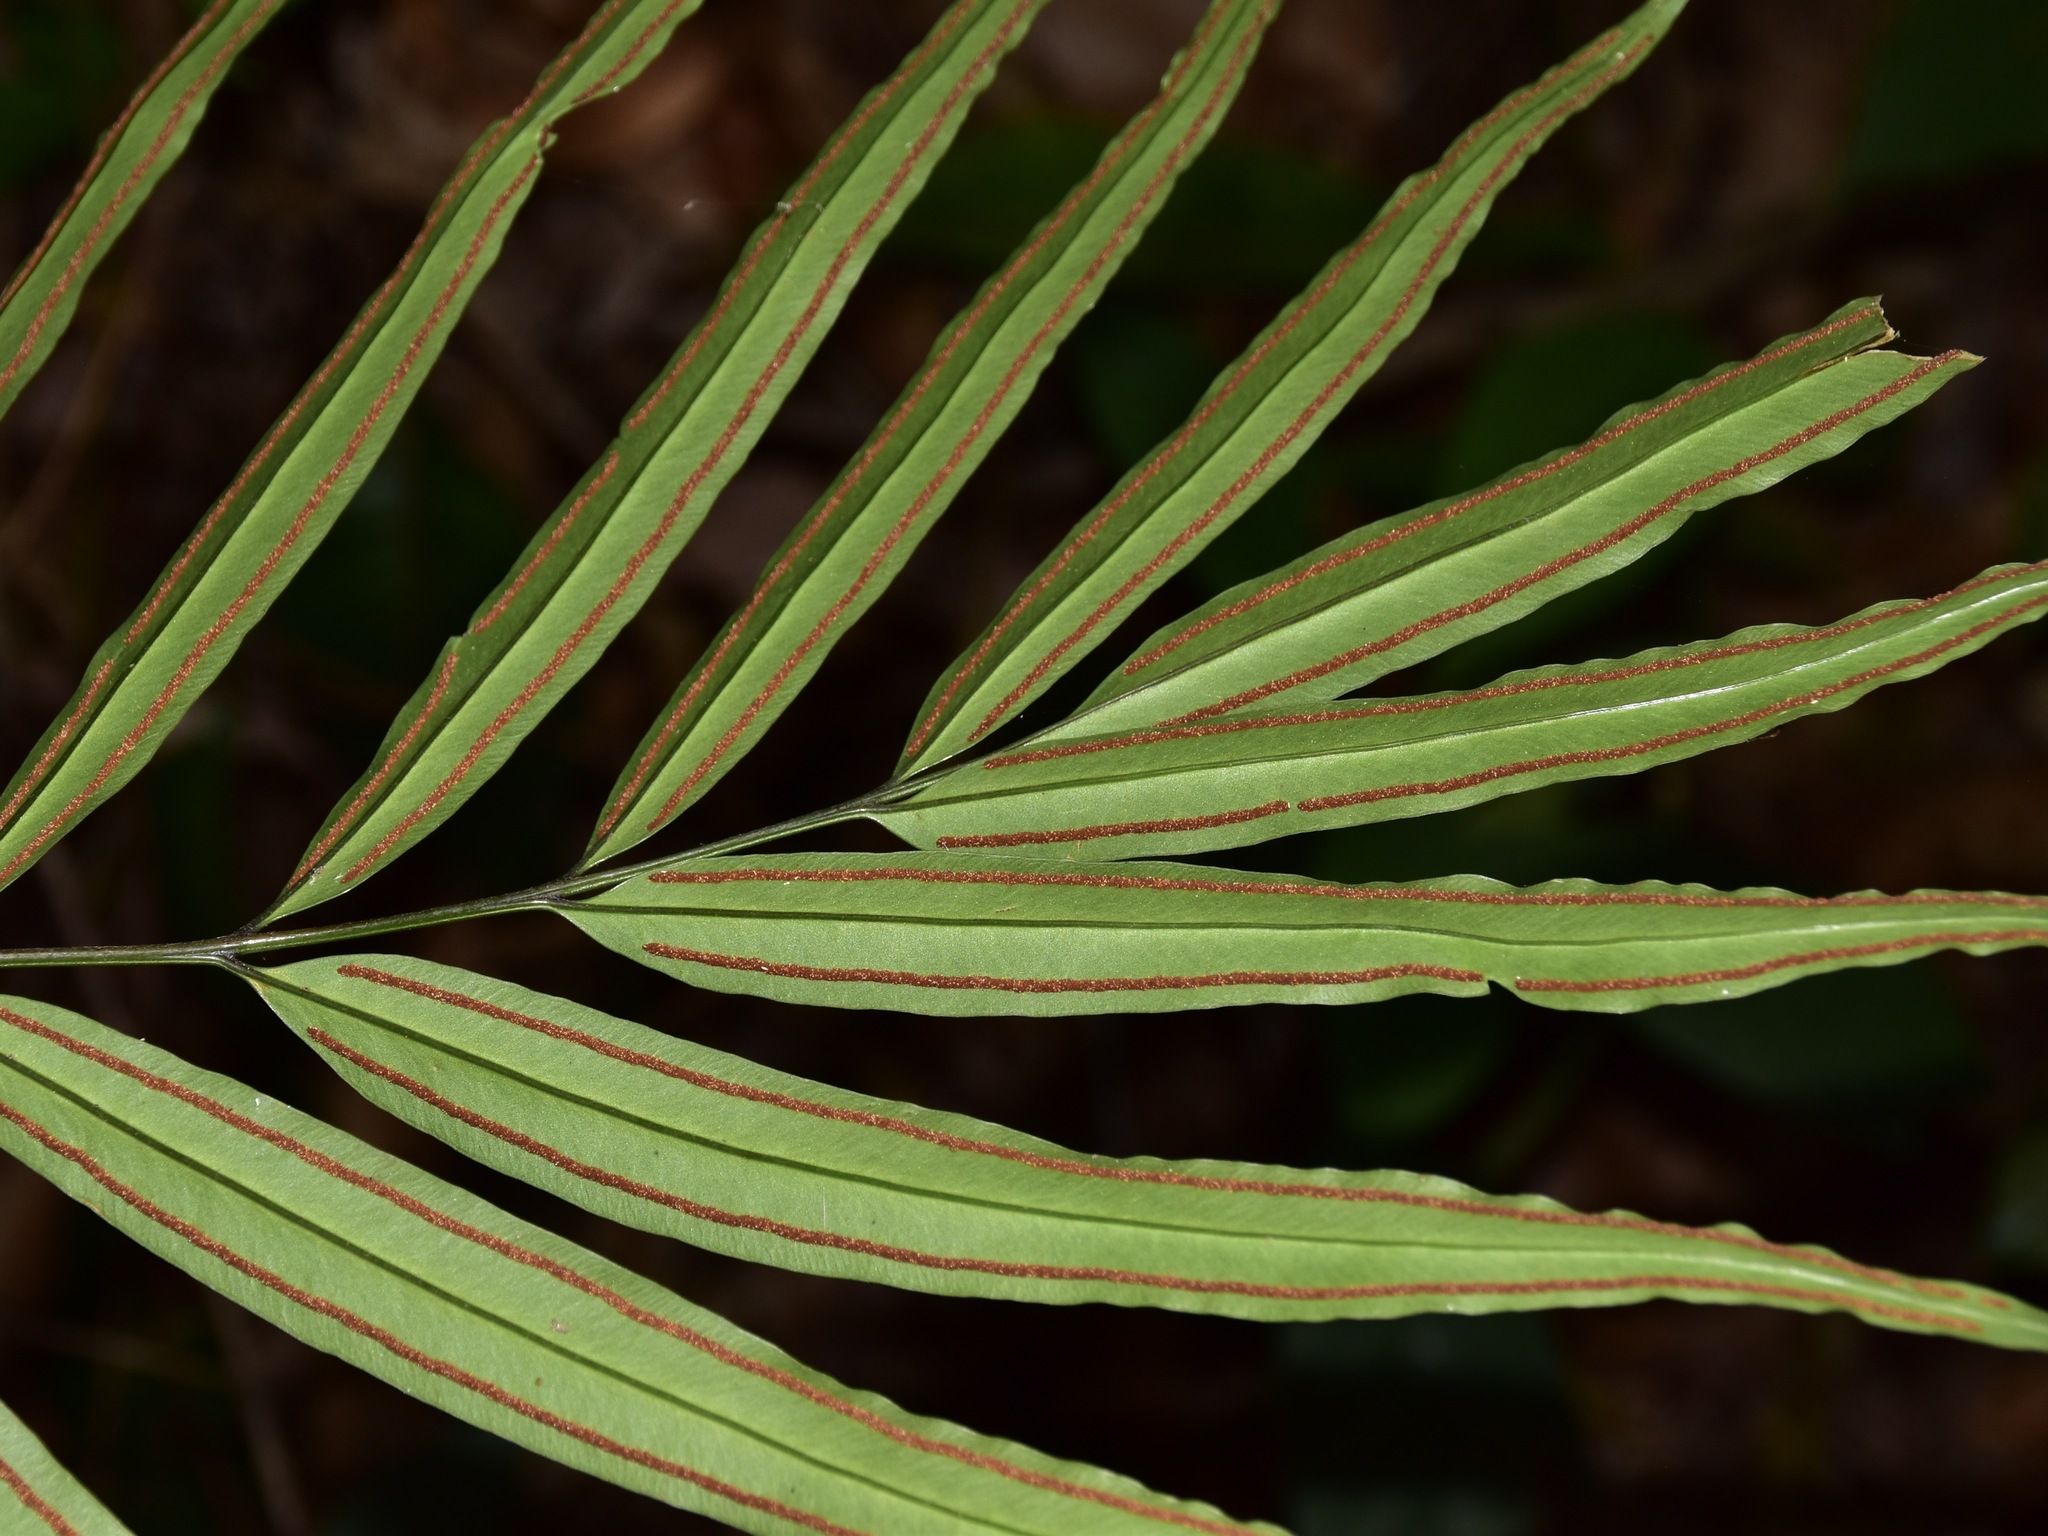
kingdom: Plantae
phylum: Tracheophyta
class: Polypodiopsida
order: Polypodiales
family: Pteridaceae
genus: Taenitis
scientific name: Taenitis blechnoides
